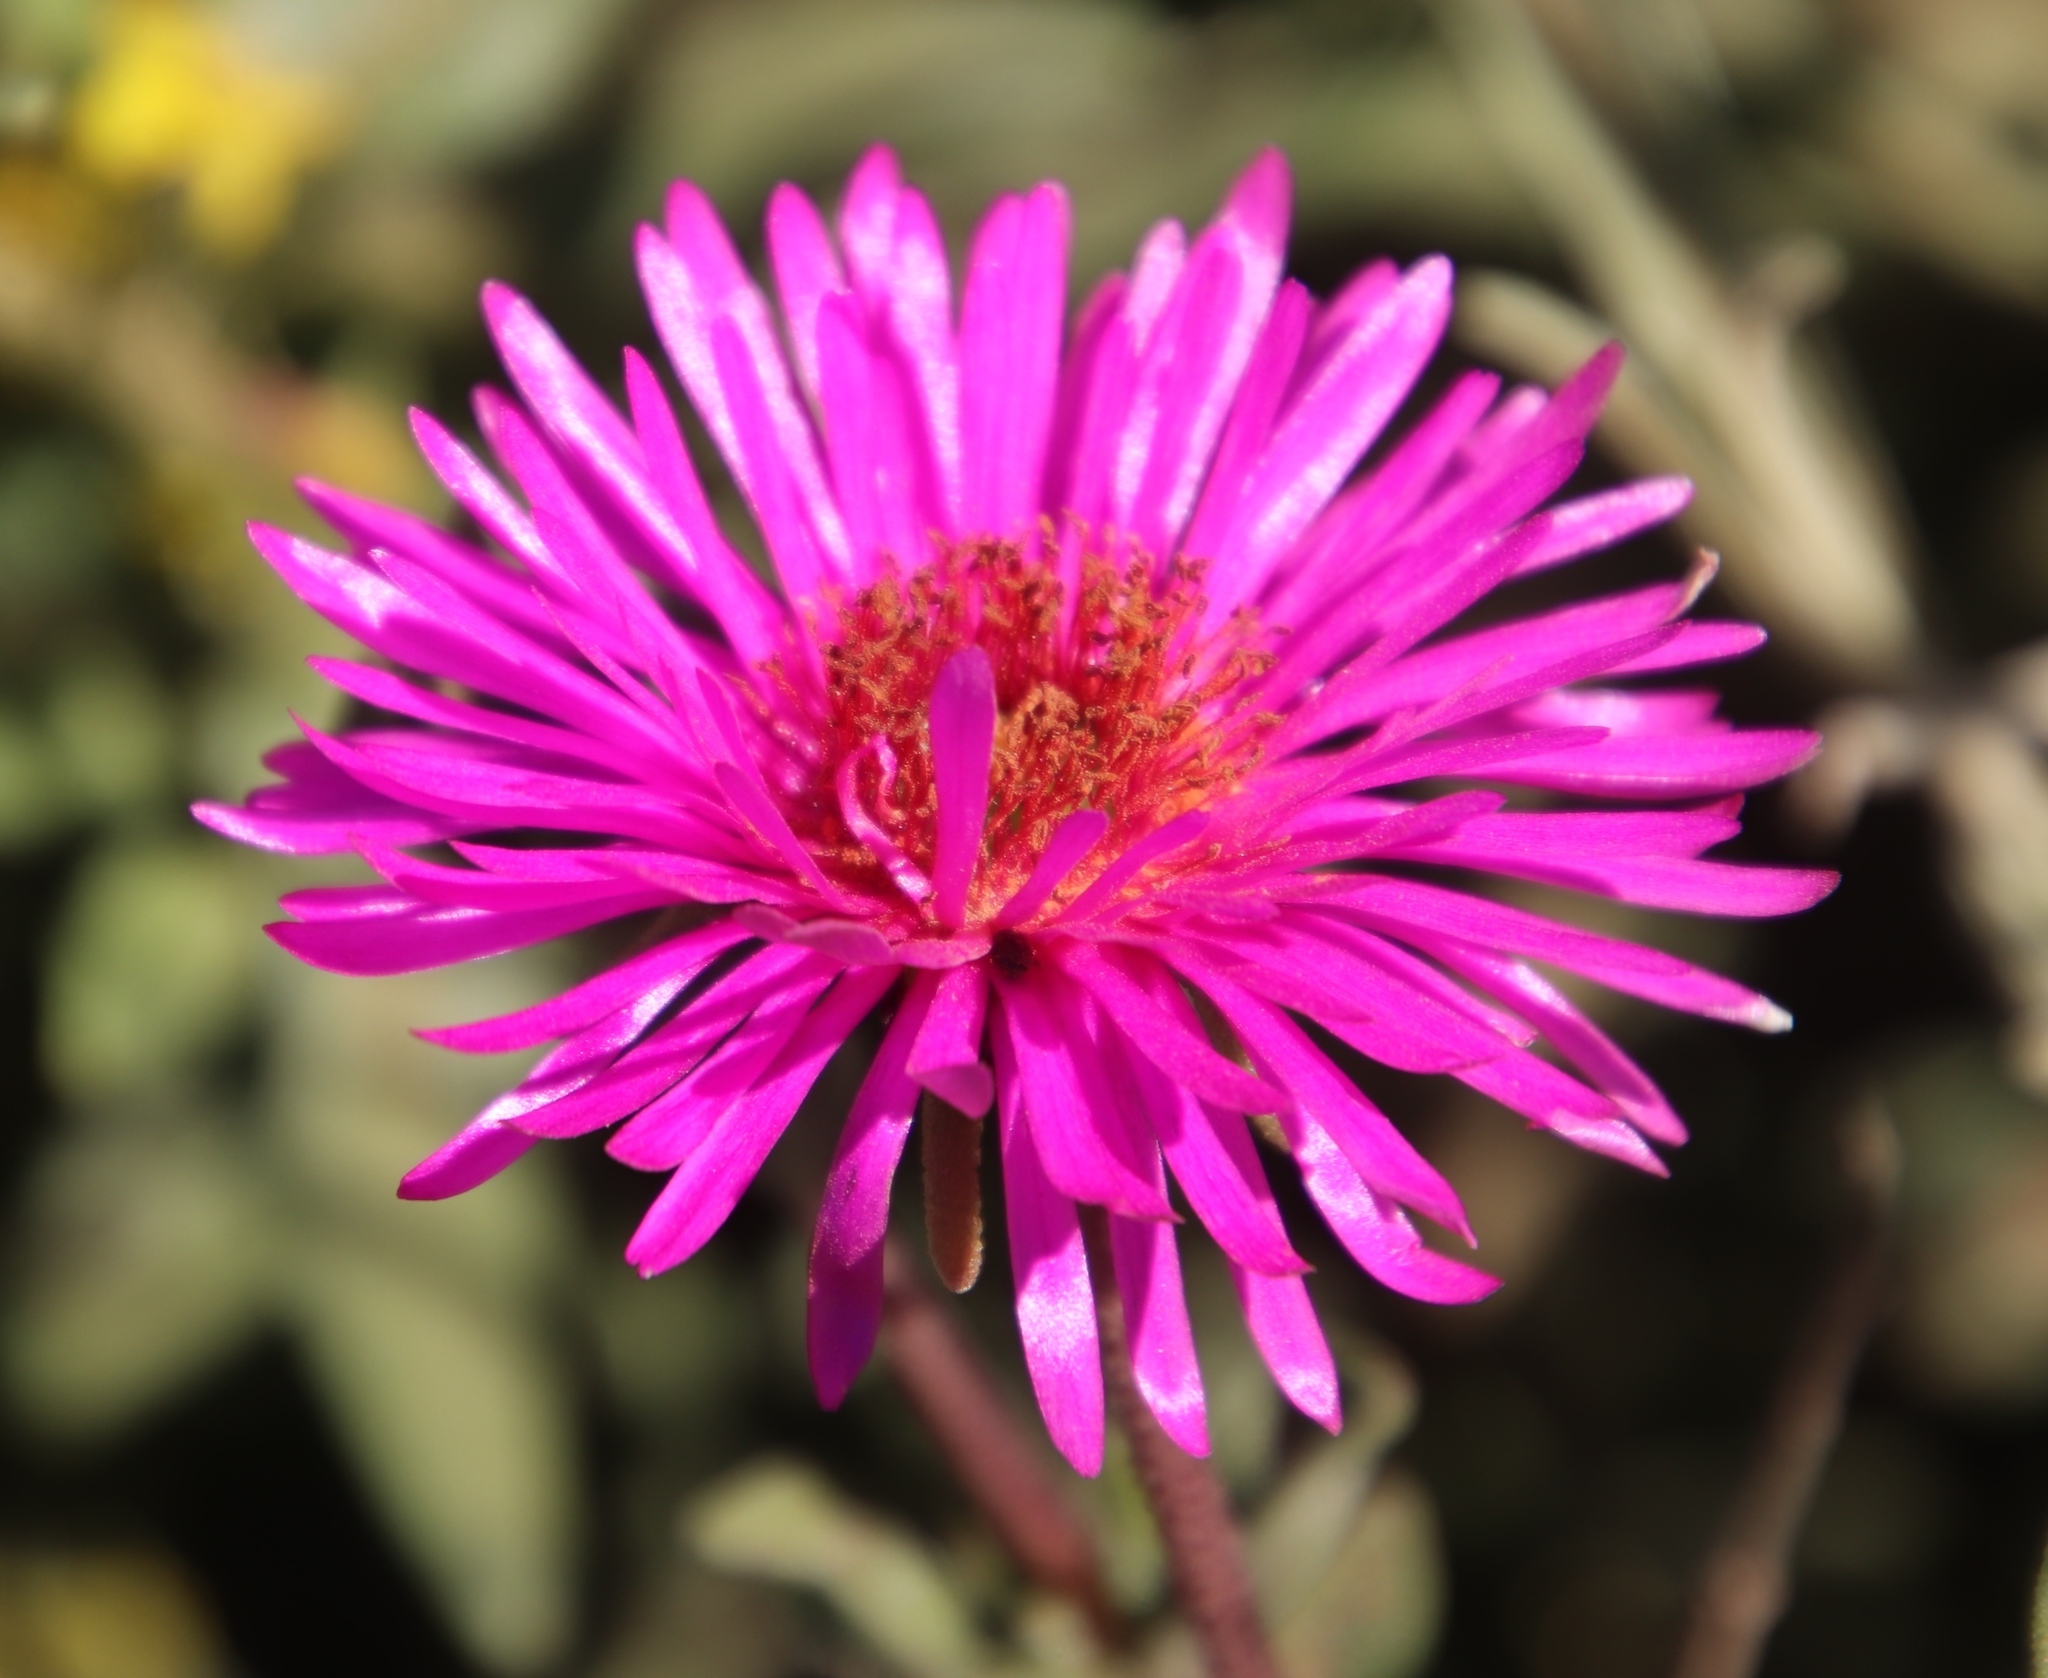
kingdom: Plantae
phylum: Tracheophyta
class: Magnoliopsida
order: Caryophyllales
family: Aizoaceae
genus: Drosanthemum
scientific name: Drosanthemum longipes
